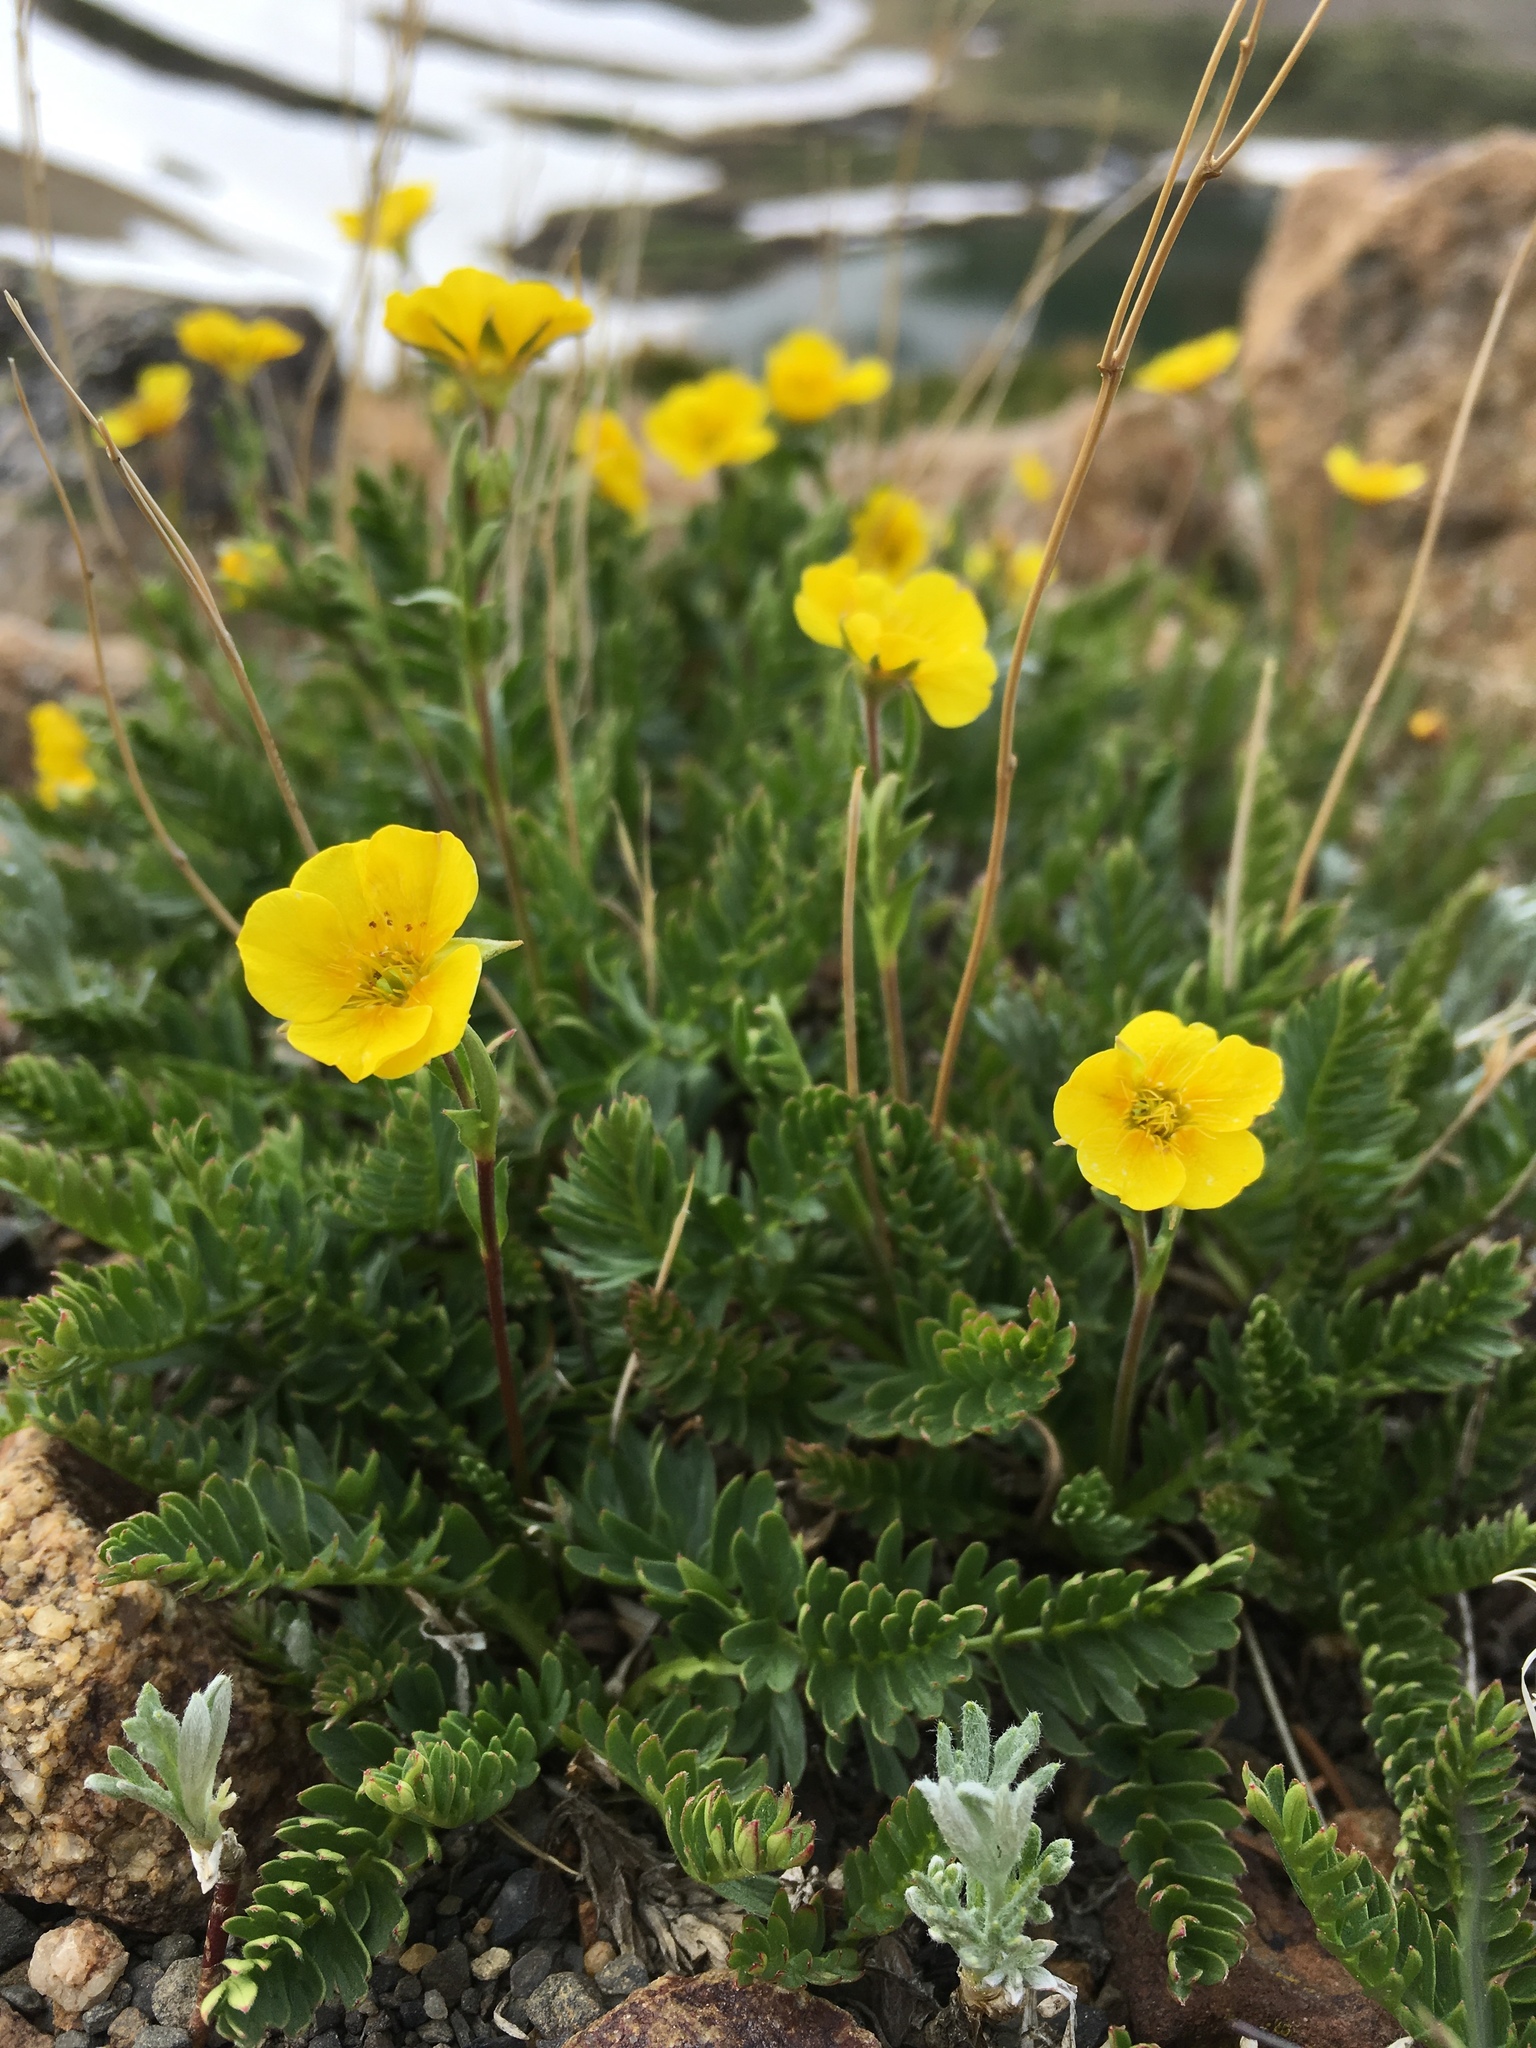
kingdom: Plantae
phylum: Tracheophyta
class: Magnoliopsida
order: Rosales
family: Rosaceae
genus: Geum
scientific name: Geum rossii
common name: Alpine avens
